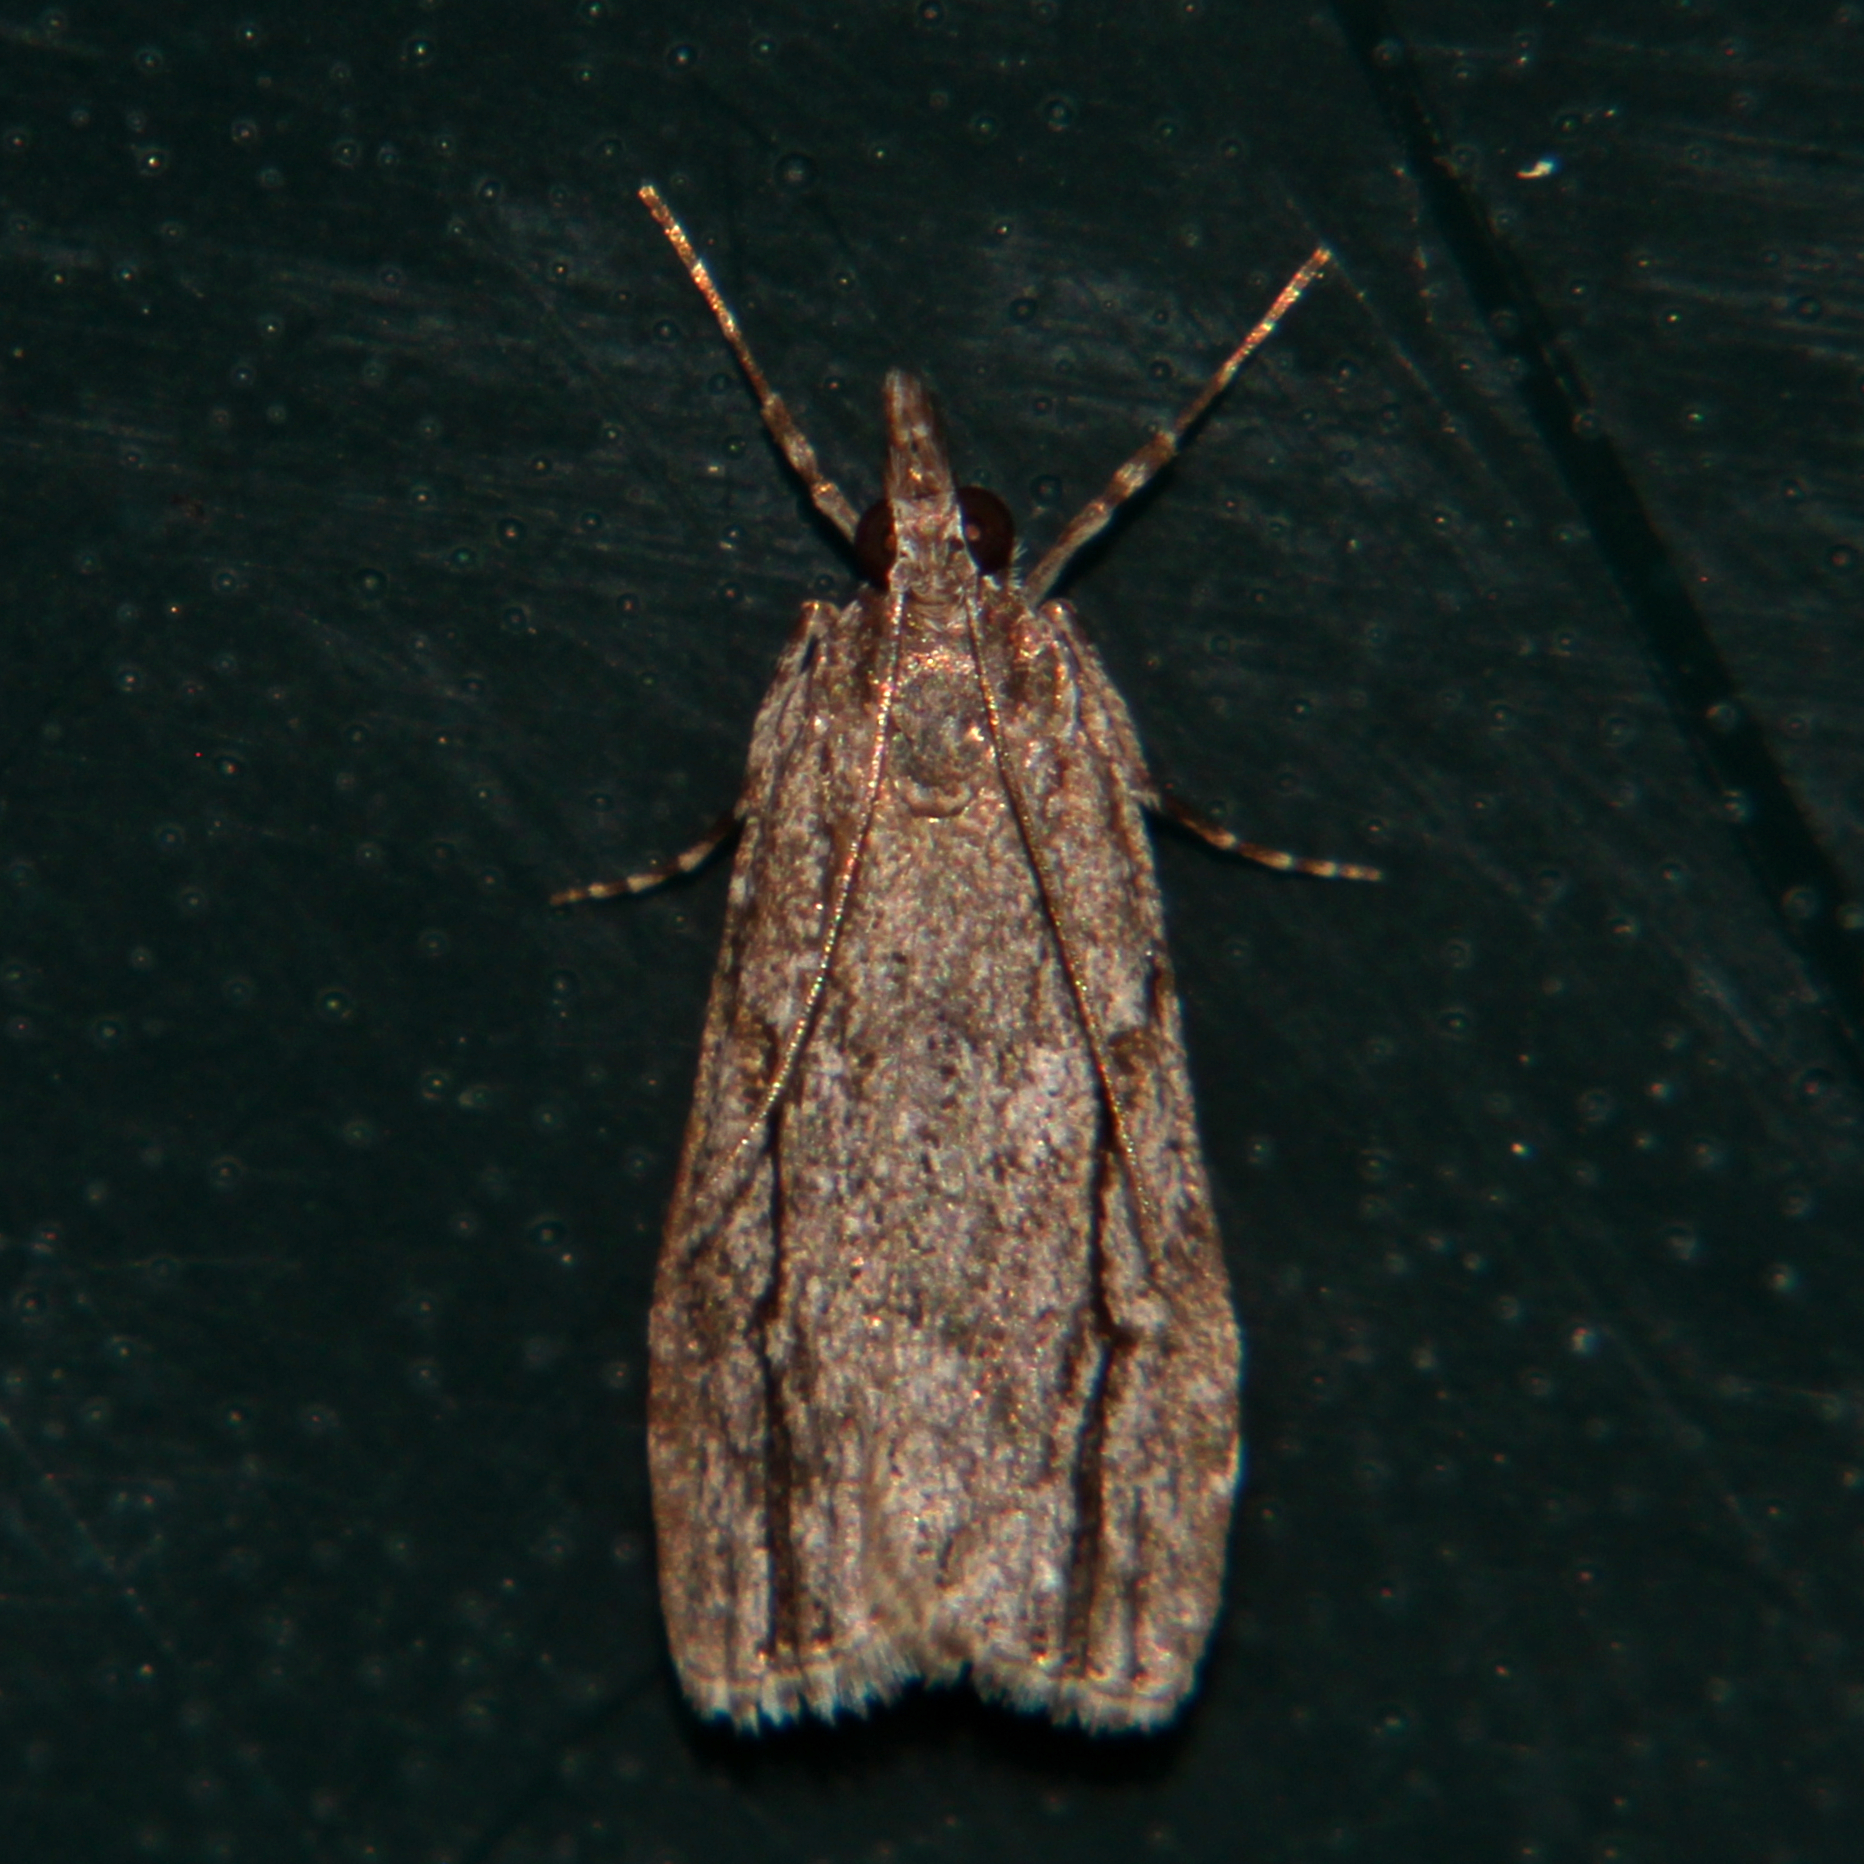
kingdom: Animalia
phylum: Arthropoda
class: Insecta
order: Lepidoptera
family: Crambidae
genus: Eudonia
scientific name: Eudonia bisinualis
